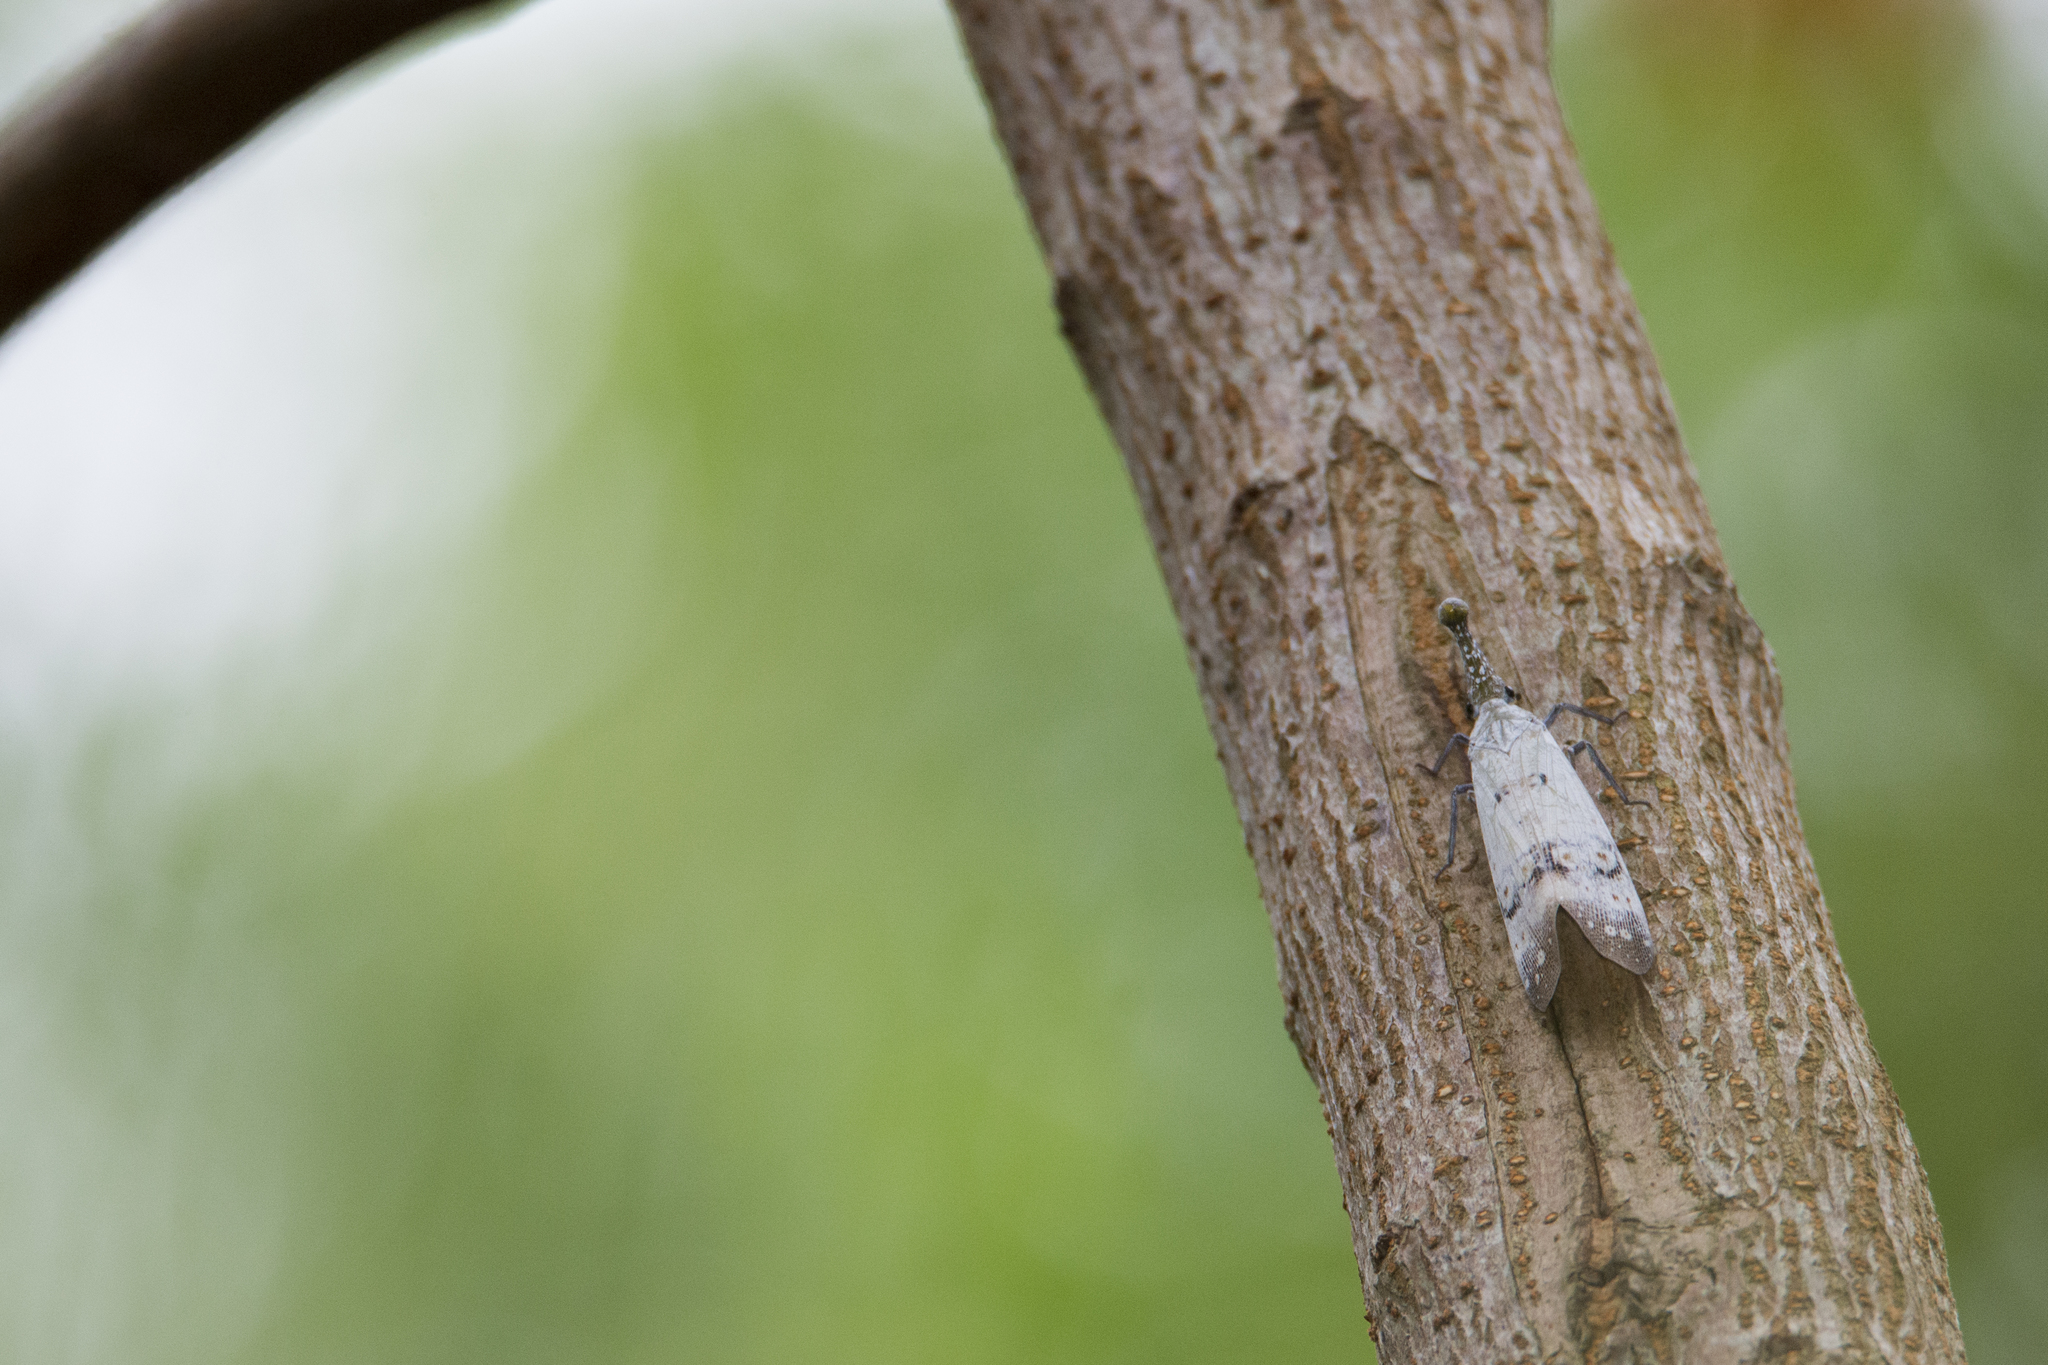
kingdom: Animalia
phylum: Arthropoda
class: Insecta
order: Hemiptera
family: Fulgoridae
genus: Pyrops
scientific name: Pyrops watanabei
